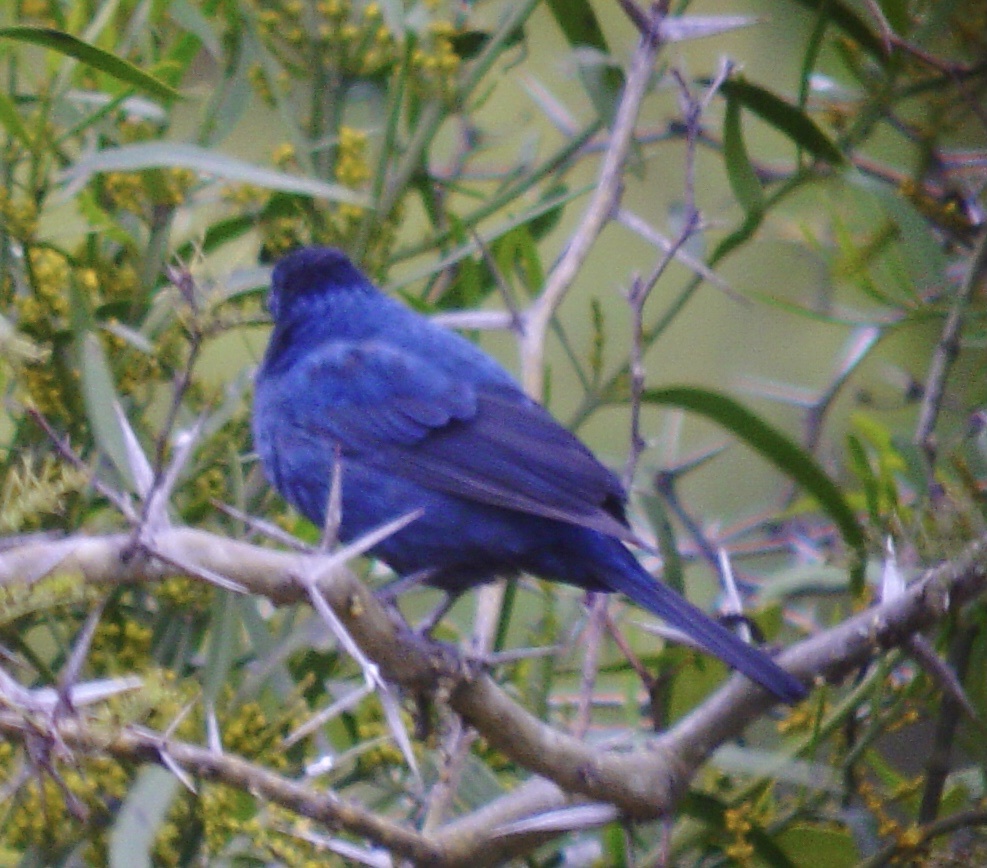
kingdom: Animalia
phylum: Chordata
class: Aves
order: Passeriformes
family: Cardinalidae
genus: Cyanoloxia
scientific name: Cyanoloxia brissonii
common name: Ultramarine grosbeak
